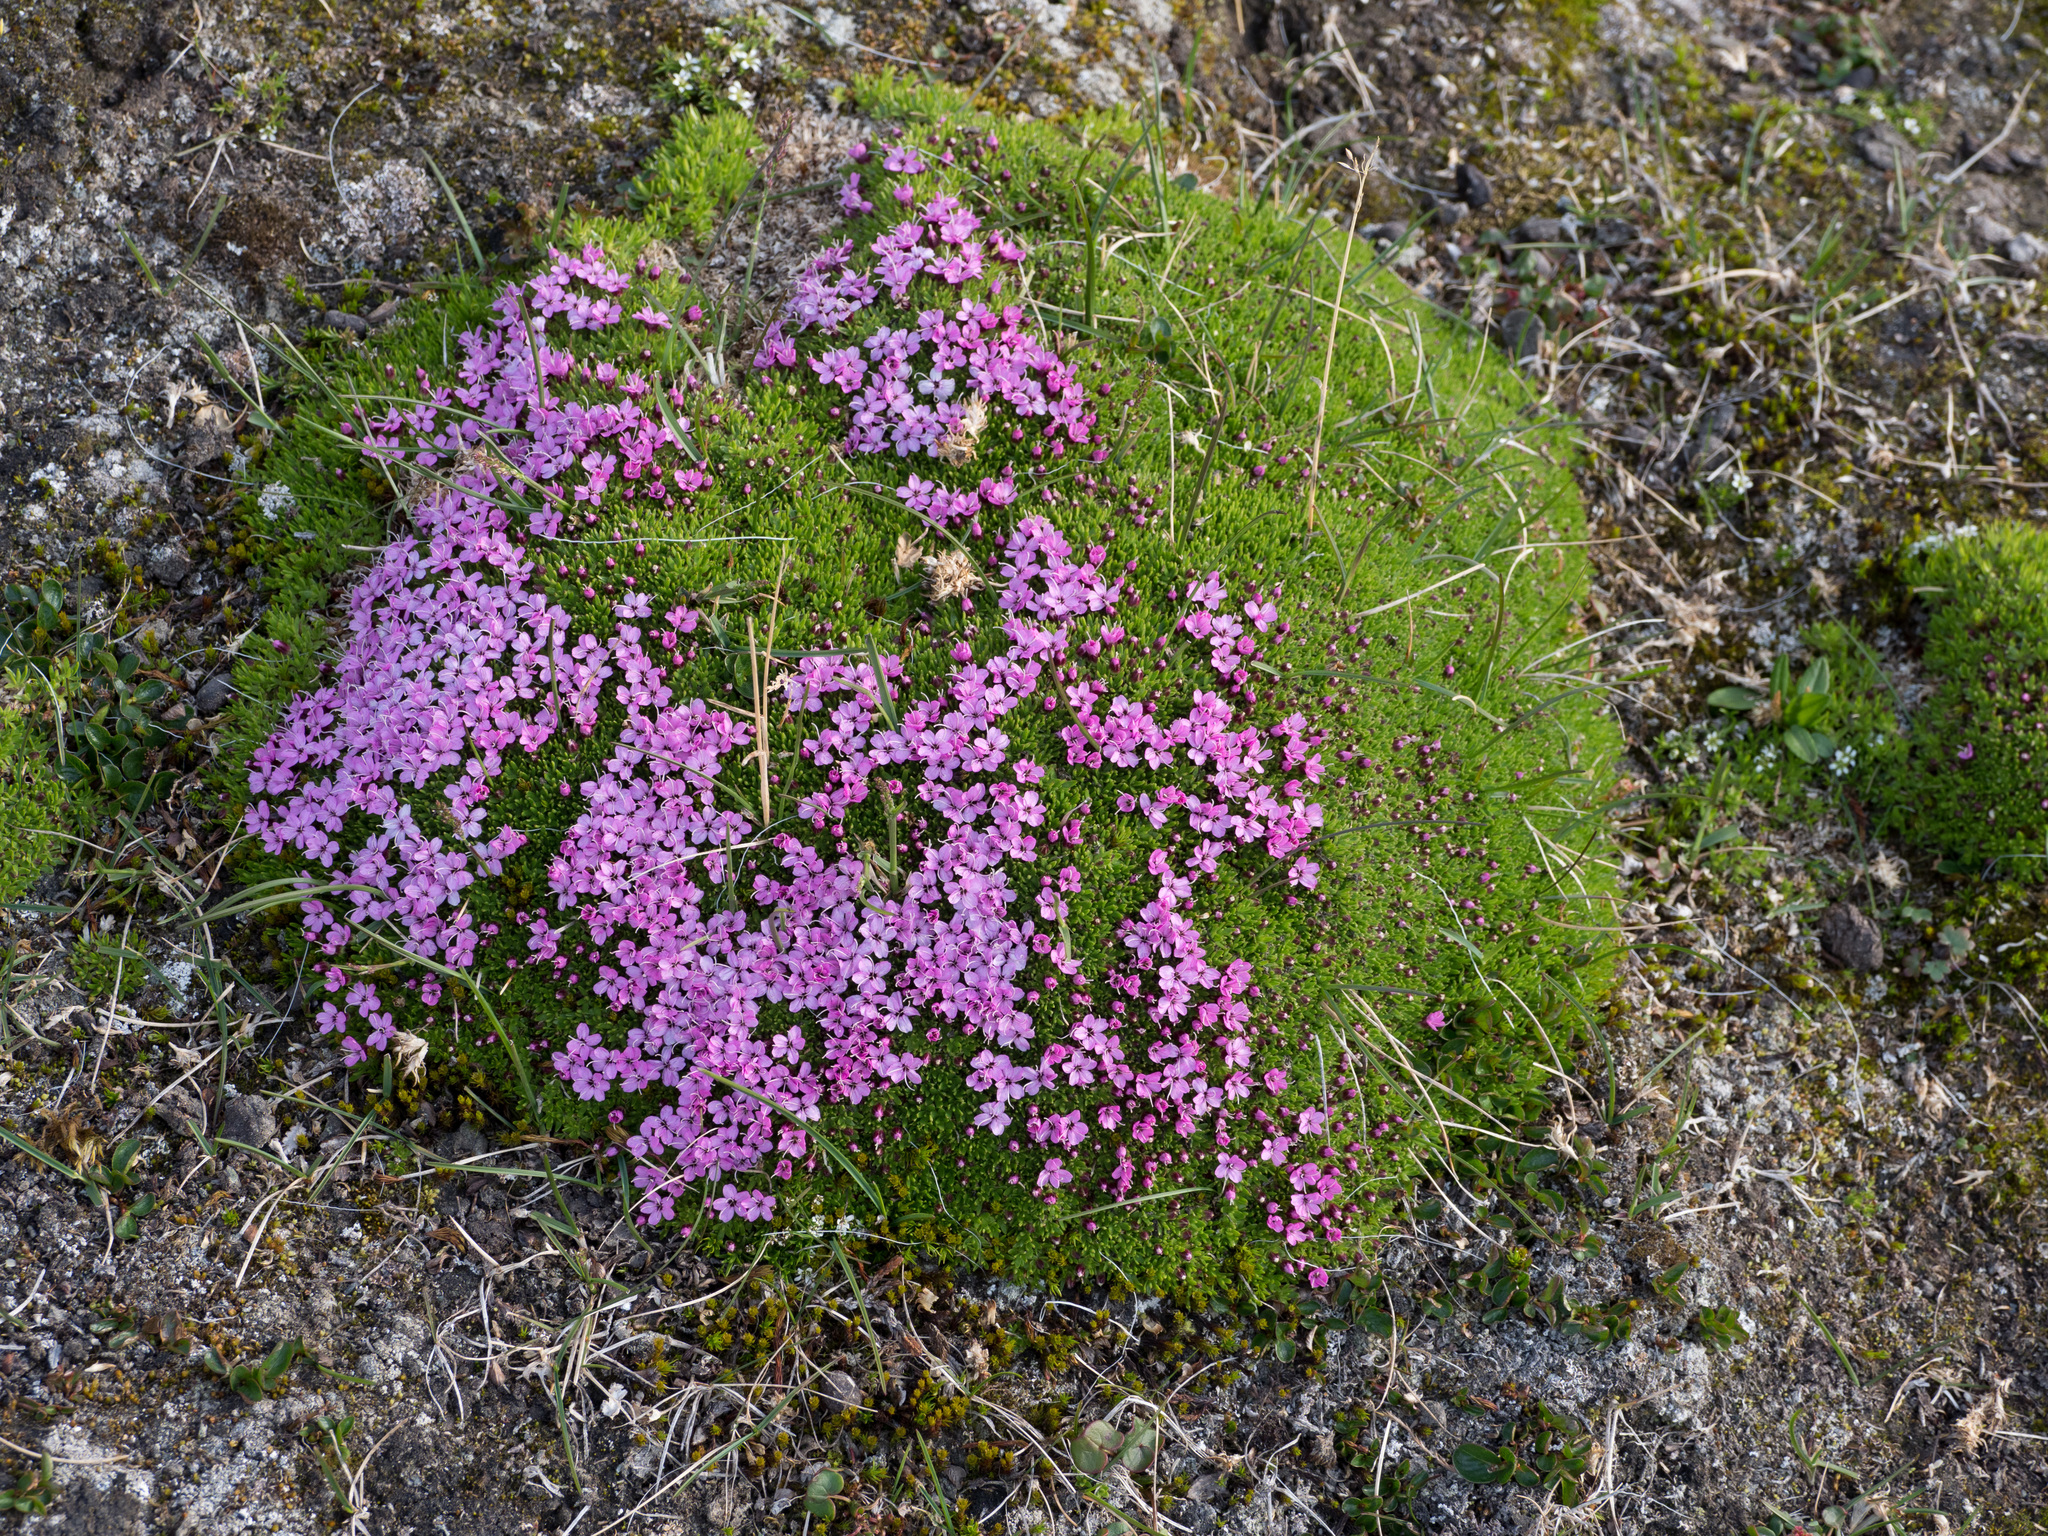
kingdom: Plantae
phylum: Tracheophyta
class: Magnoliopsida
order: Caryophyllales
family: Caryophyllaceae
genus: Silene
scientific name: Silene acaulis
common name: Moss campion
